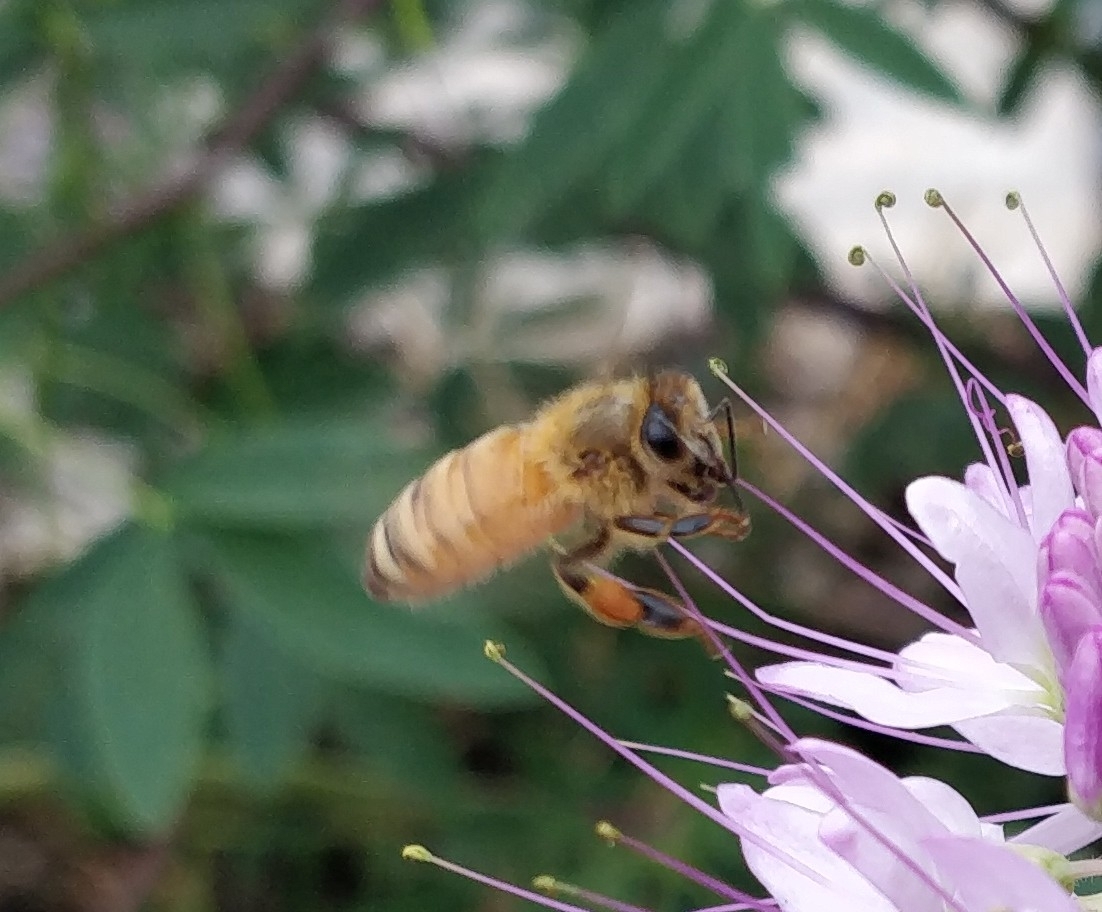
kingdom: Animalia
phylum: Arthropoda
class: Insecta
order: Hymenoptera
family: Apidae
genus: Apis
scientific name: Apis mellifera
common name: Honey bee
